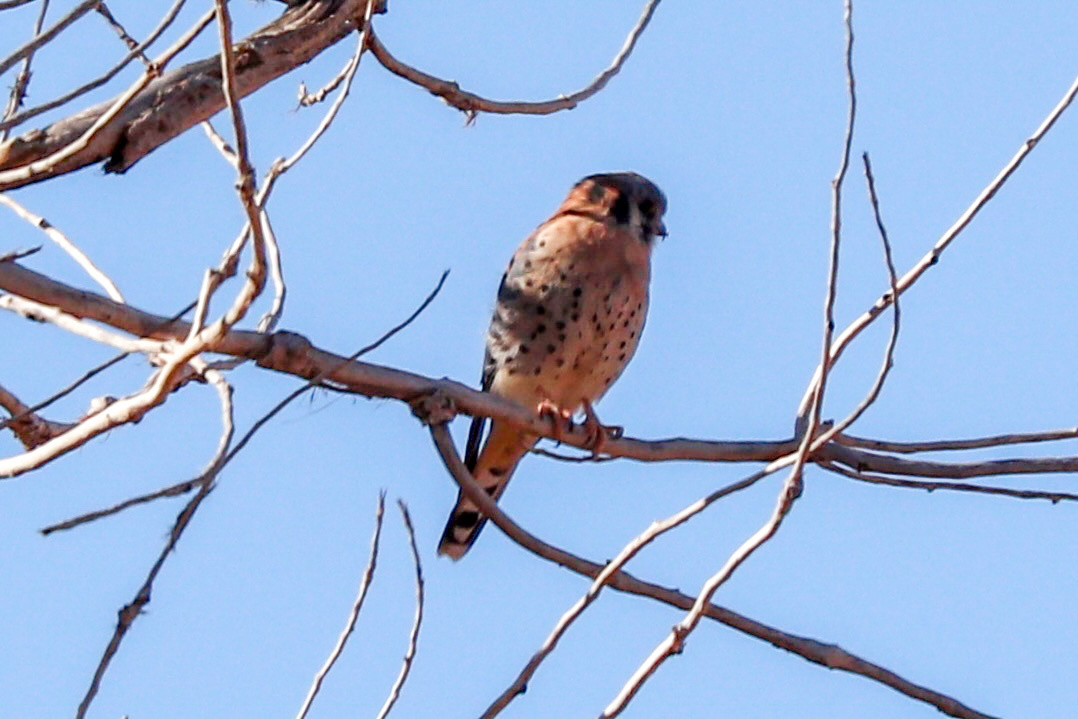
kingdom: Animalia
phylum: Chordata
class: Aves
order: Falconiformes
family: Falconidae
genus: Falco
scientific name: Falco sparverius
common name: American kestrel
